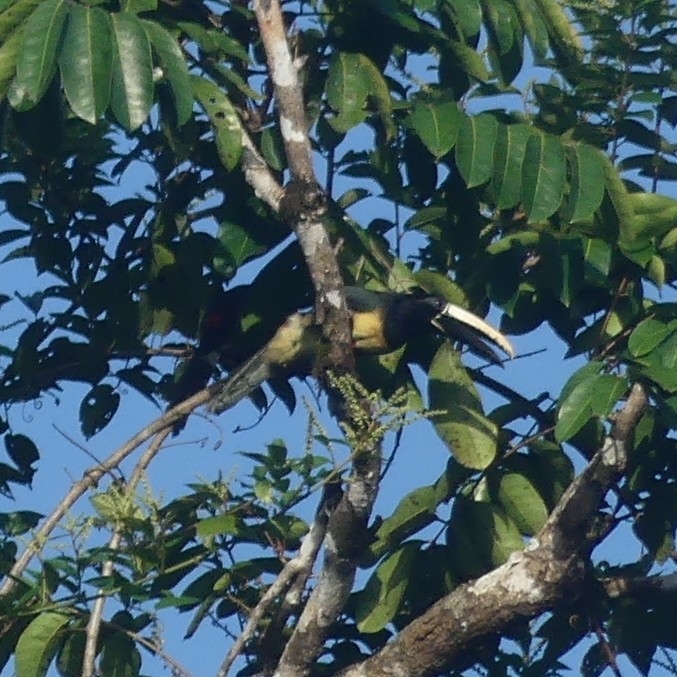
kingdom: Animalia
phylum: Chordata
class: Aves
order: Piciformes
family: Ramphastidae
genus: Pteroglossus
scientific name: Pteroglossus aracari
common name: Black-necked aracari
